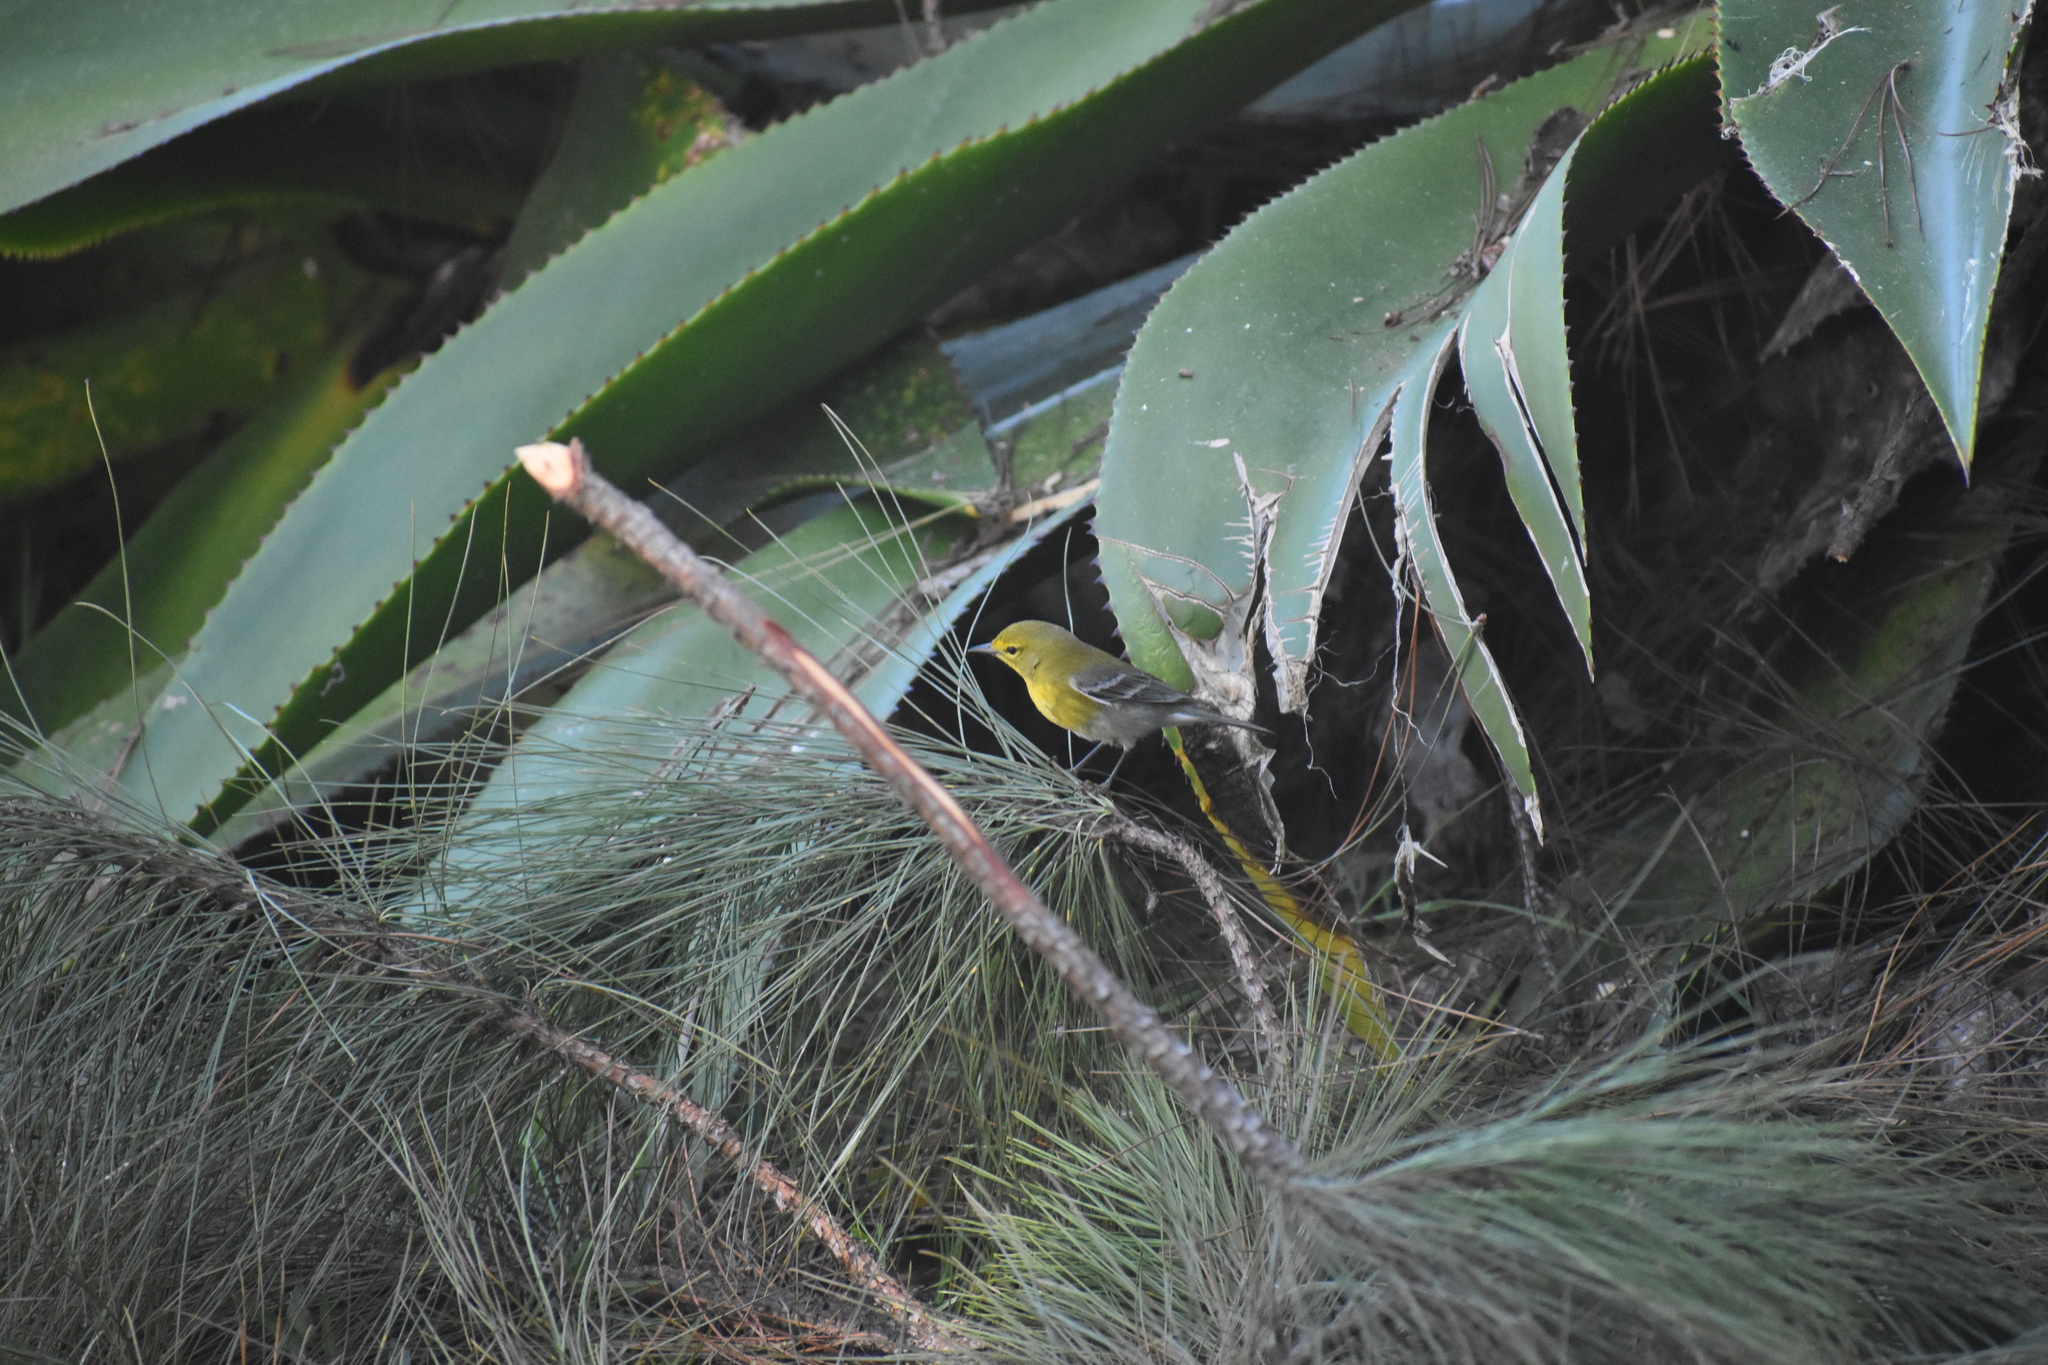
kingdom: Animalia
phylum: Chordata
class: Aves
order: Passeriformes
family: Parulidae
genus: Setophaga
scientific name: Setophaga pinus
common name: Pine warbler
